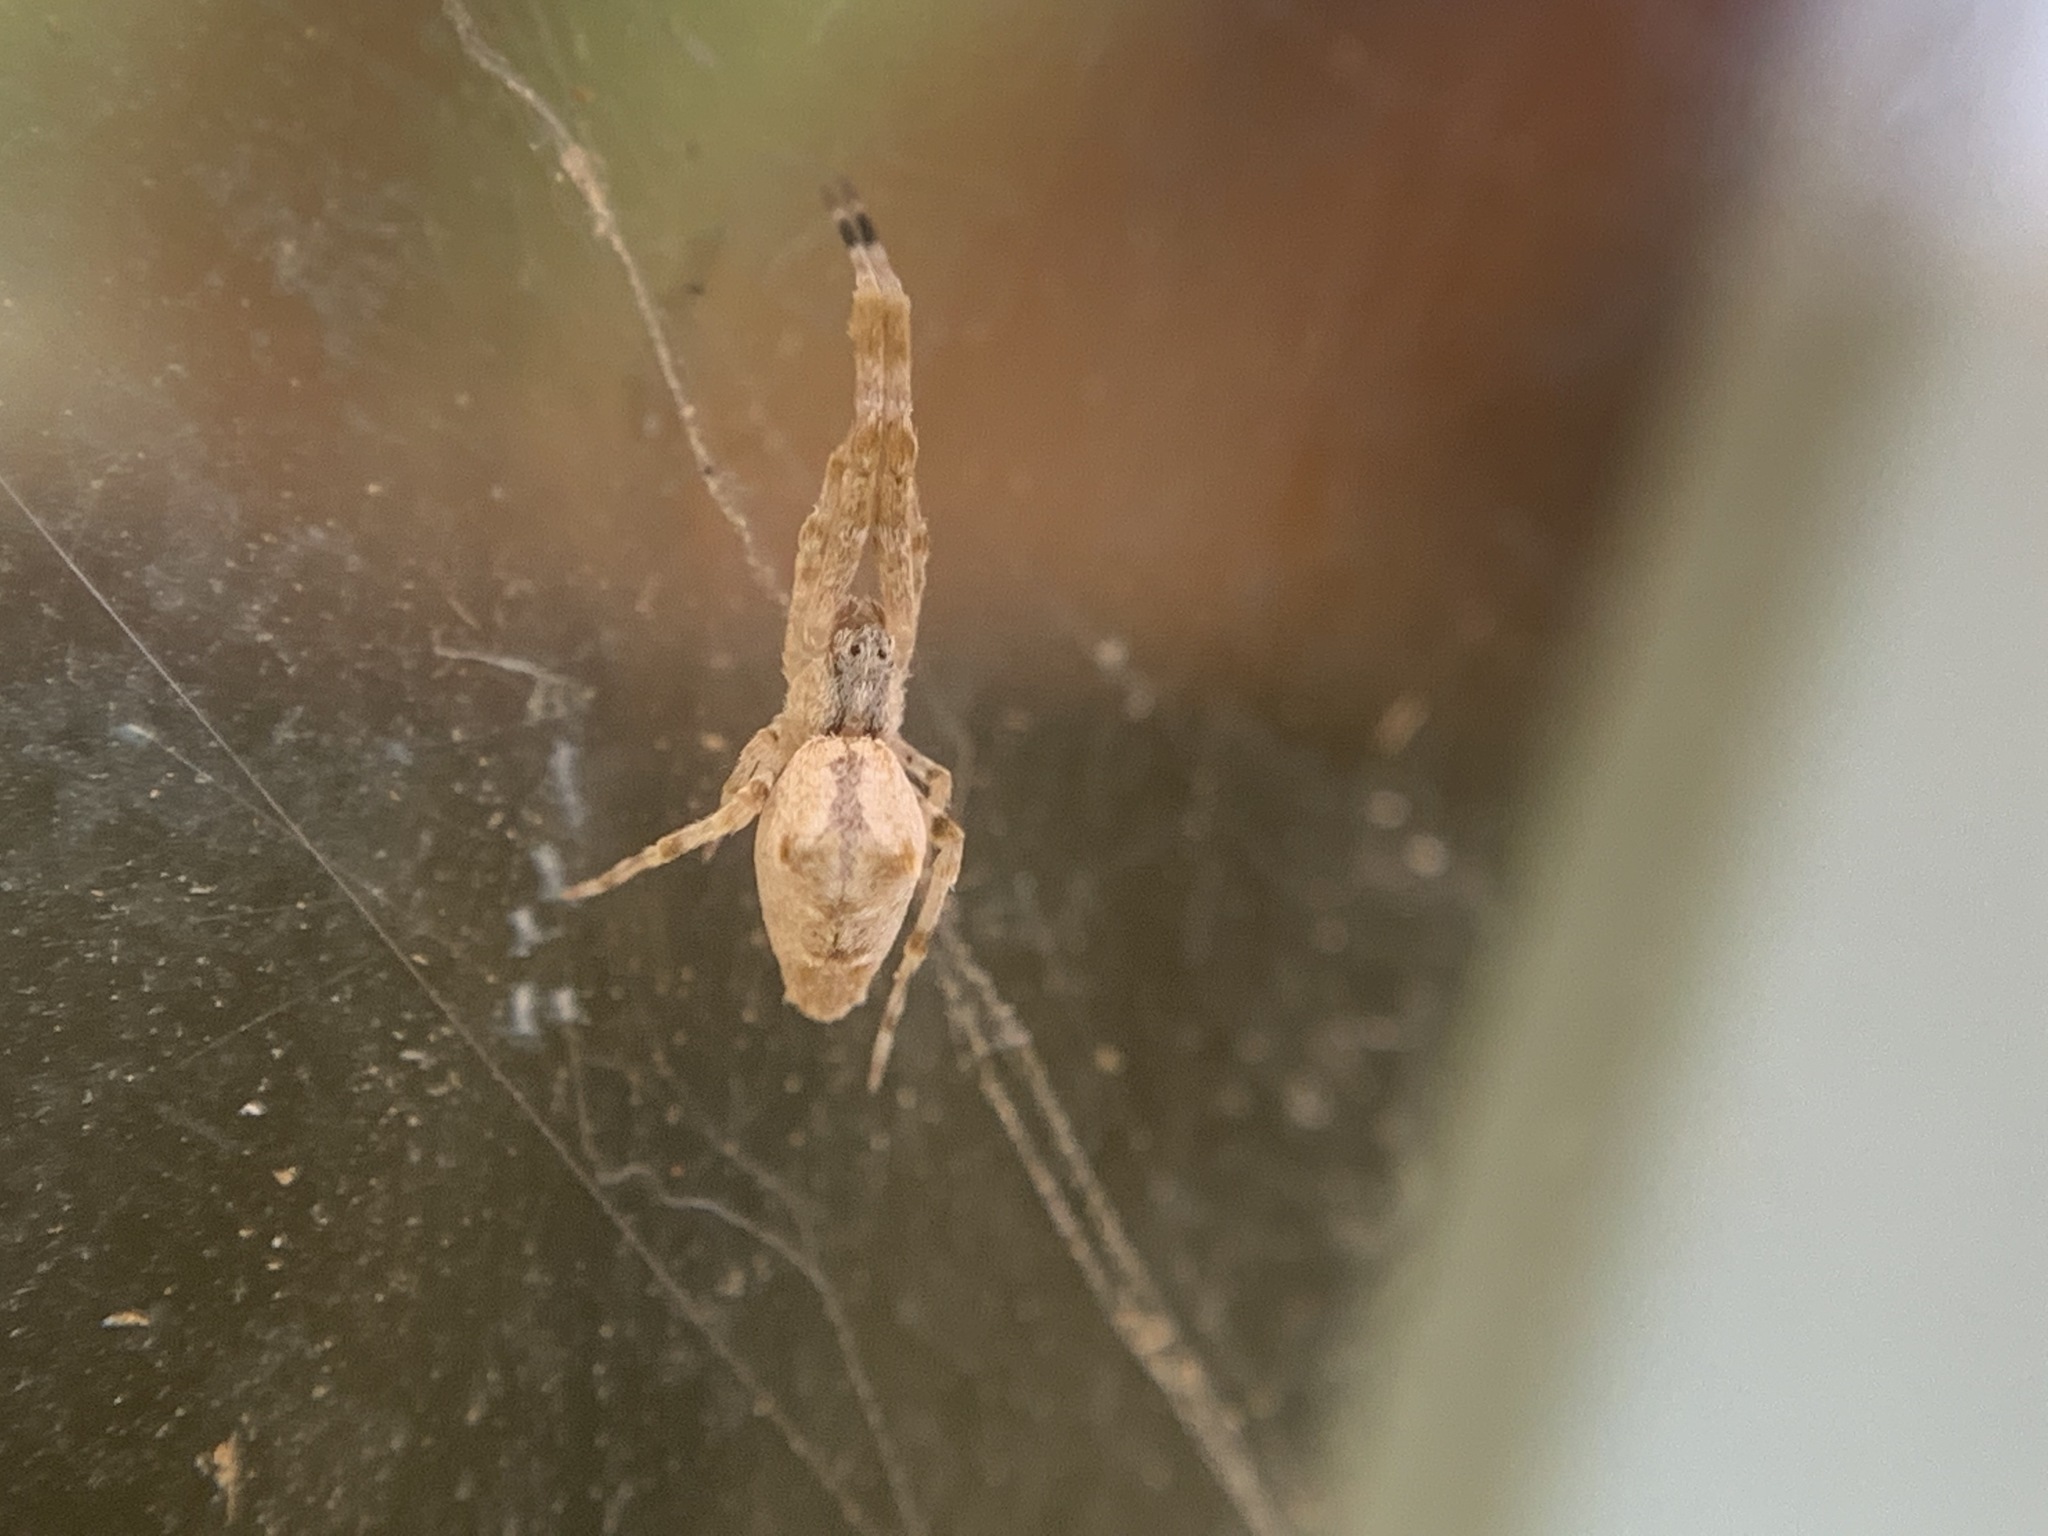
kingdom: Animalia
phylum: Arthropoda
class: Arachnida
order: Araneae
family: Uloboridae
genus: Uloborus
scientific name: Uloborus diversus
